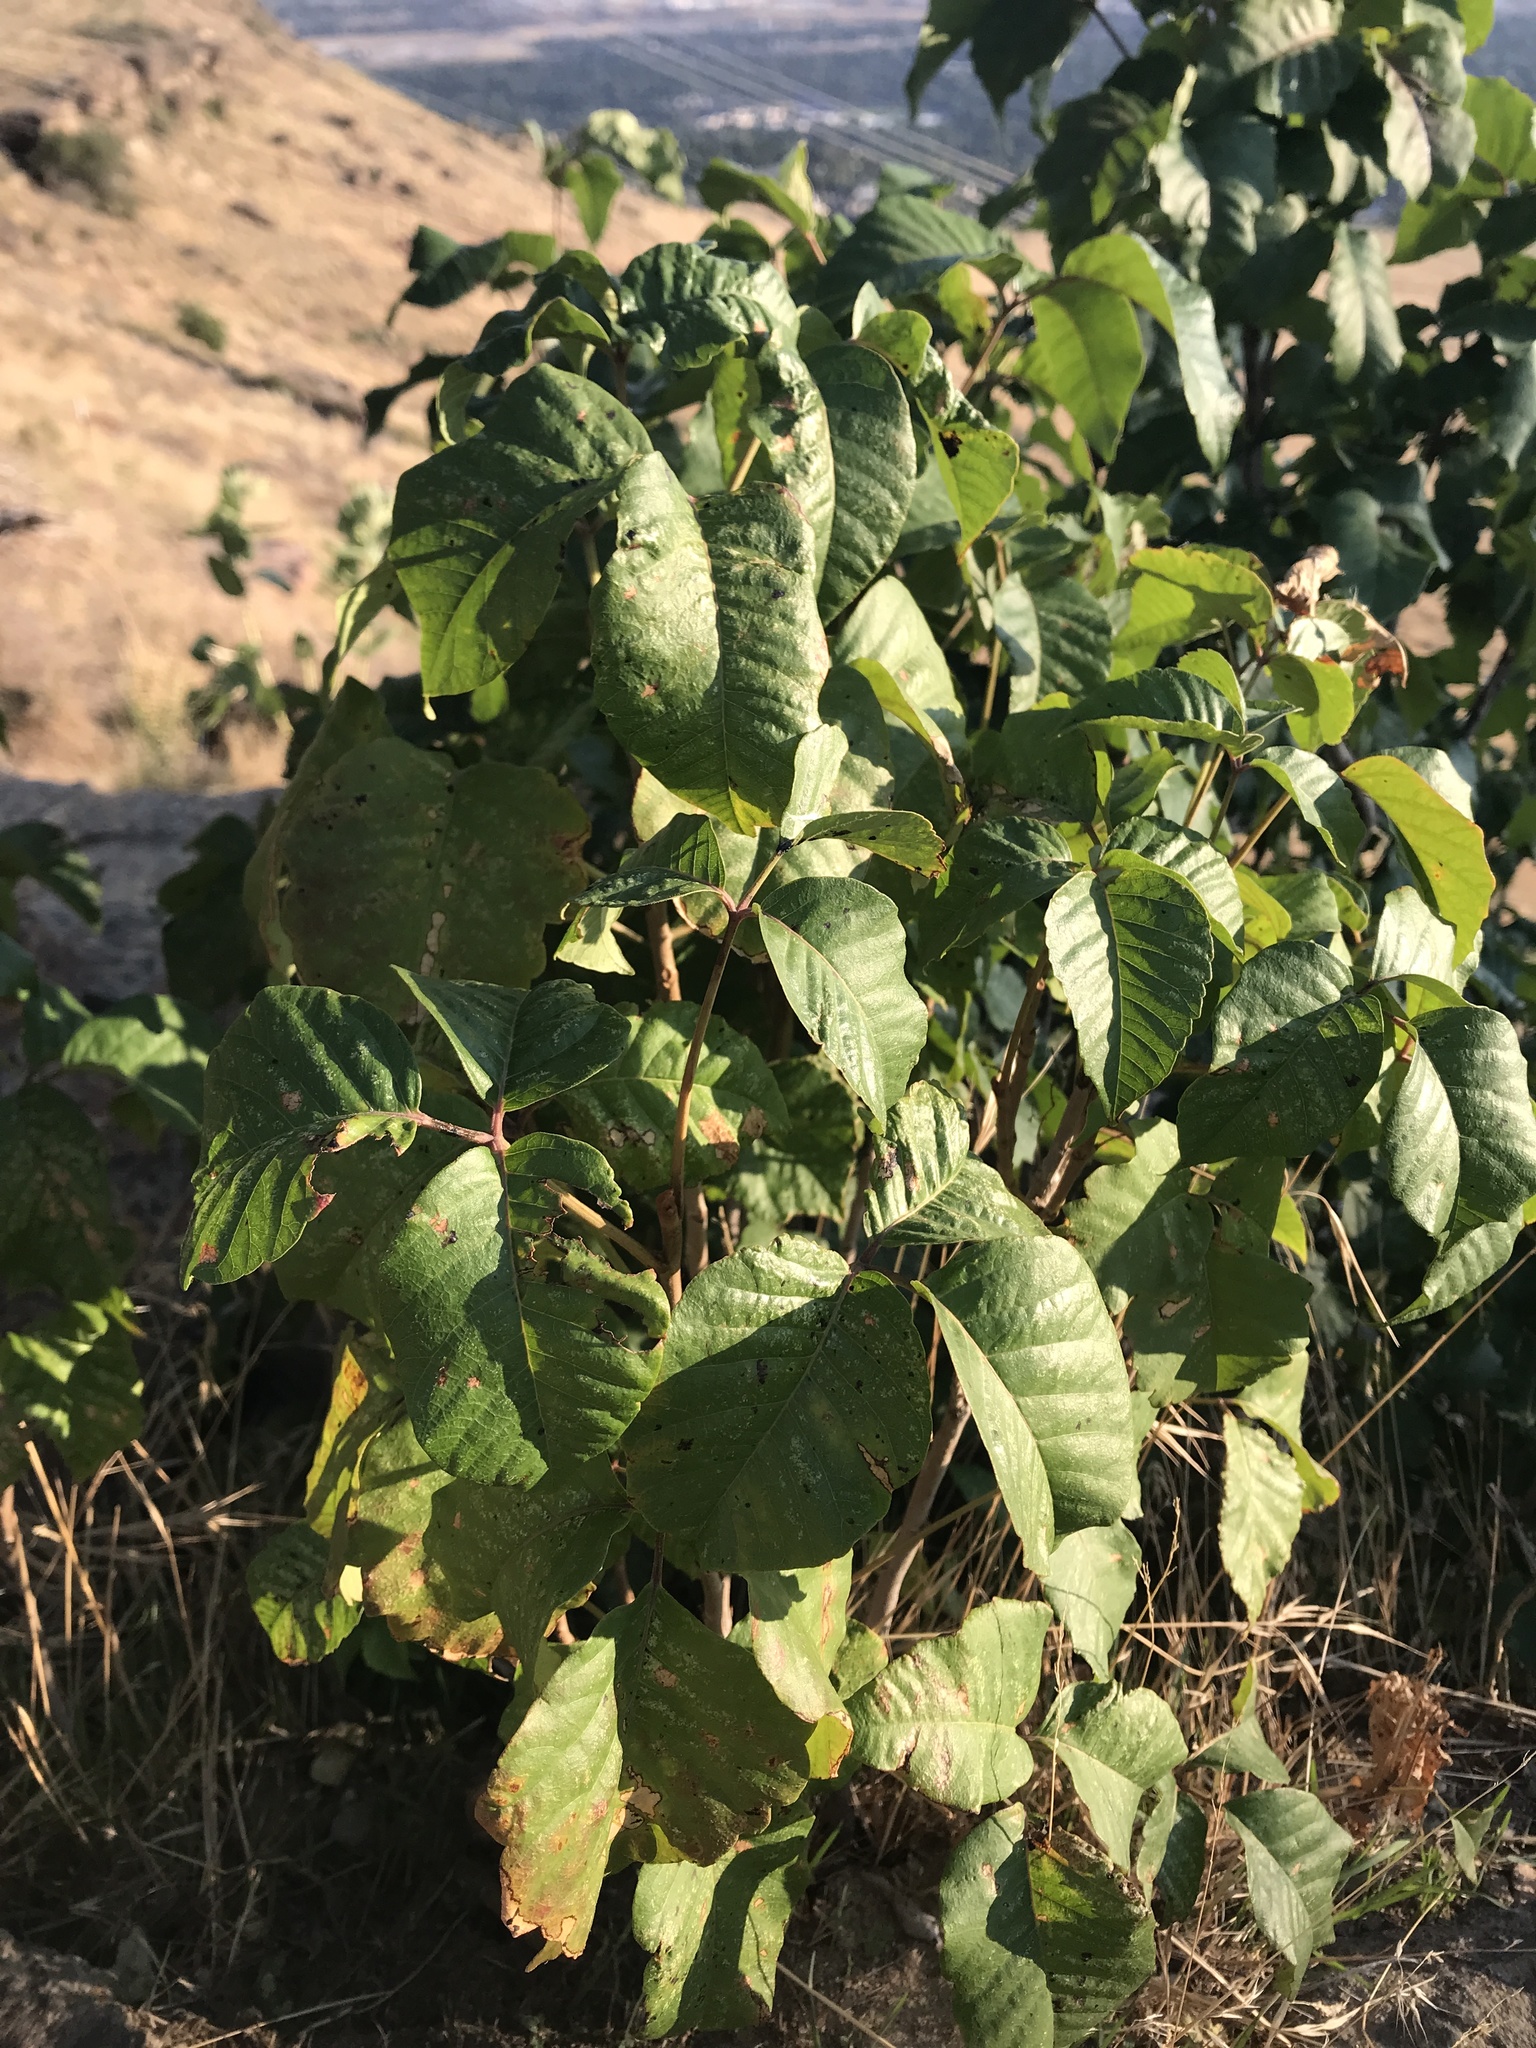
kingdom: Plantae
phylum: Tracheophyta
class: Magnoliopsida
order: Sapindales
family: Anacardiaceae
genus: Toxicodendron
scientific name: Toxicodendron rydbergii
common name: Rydberg's poison-ivy
